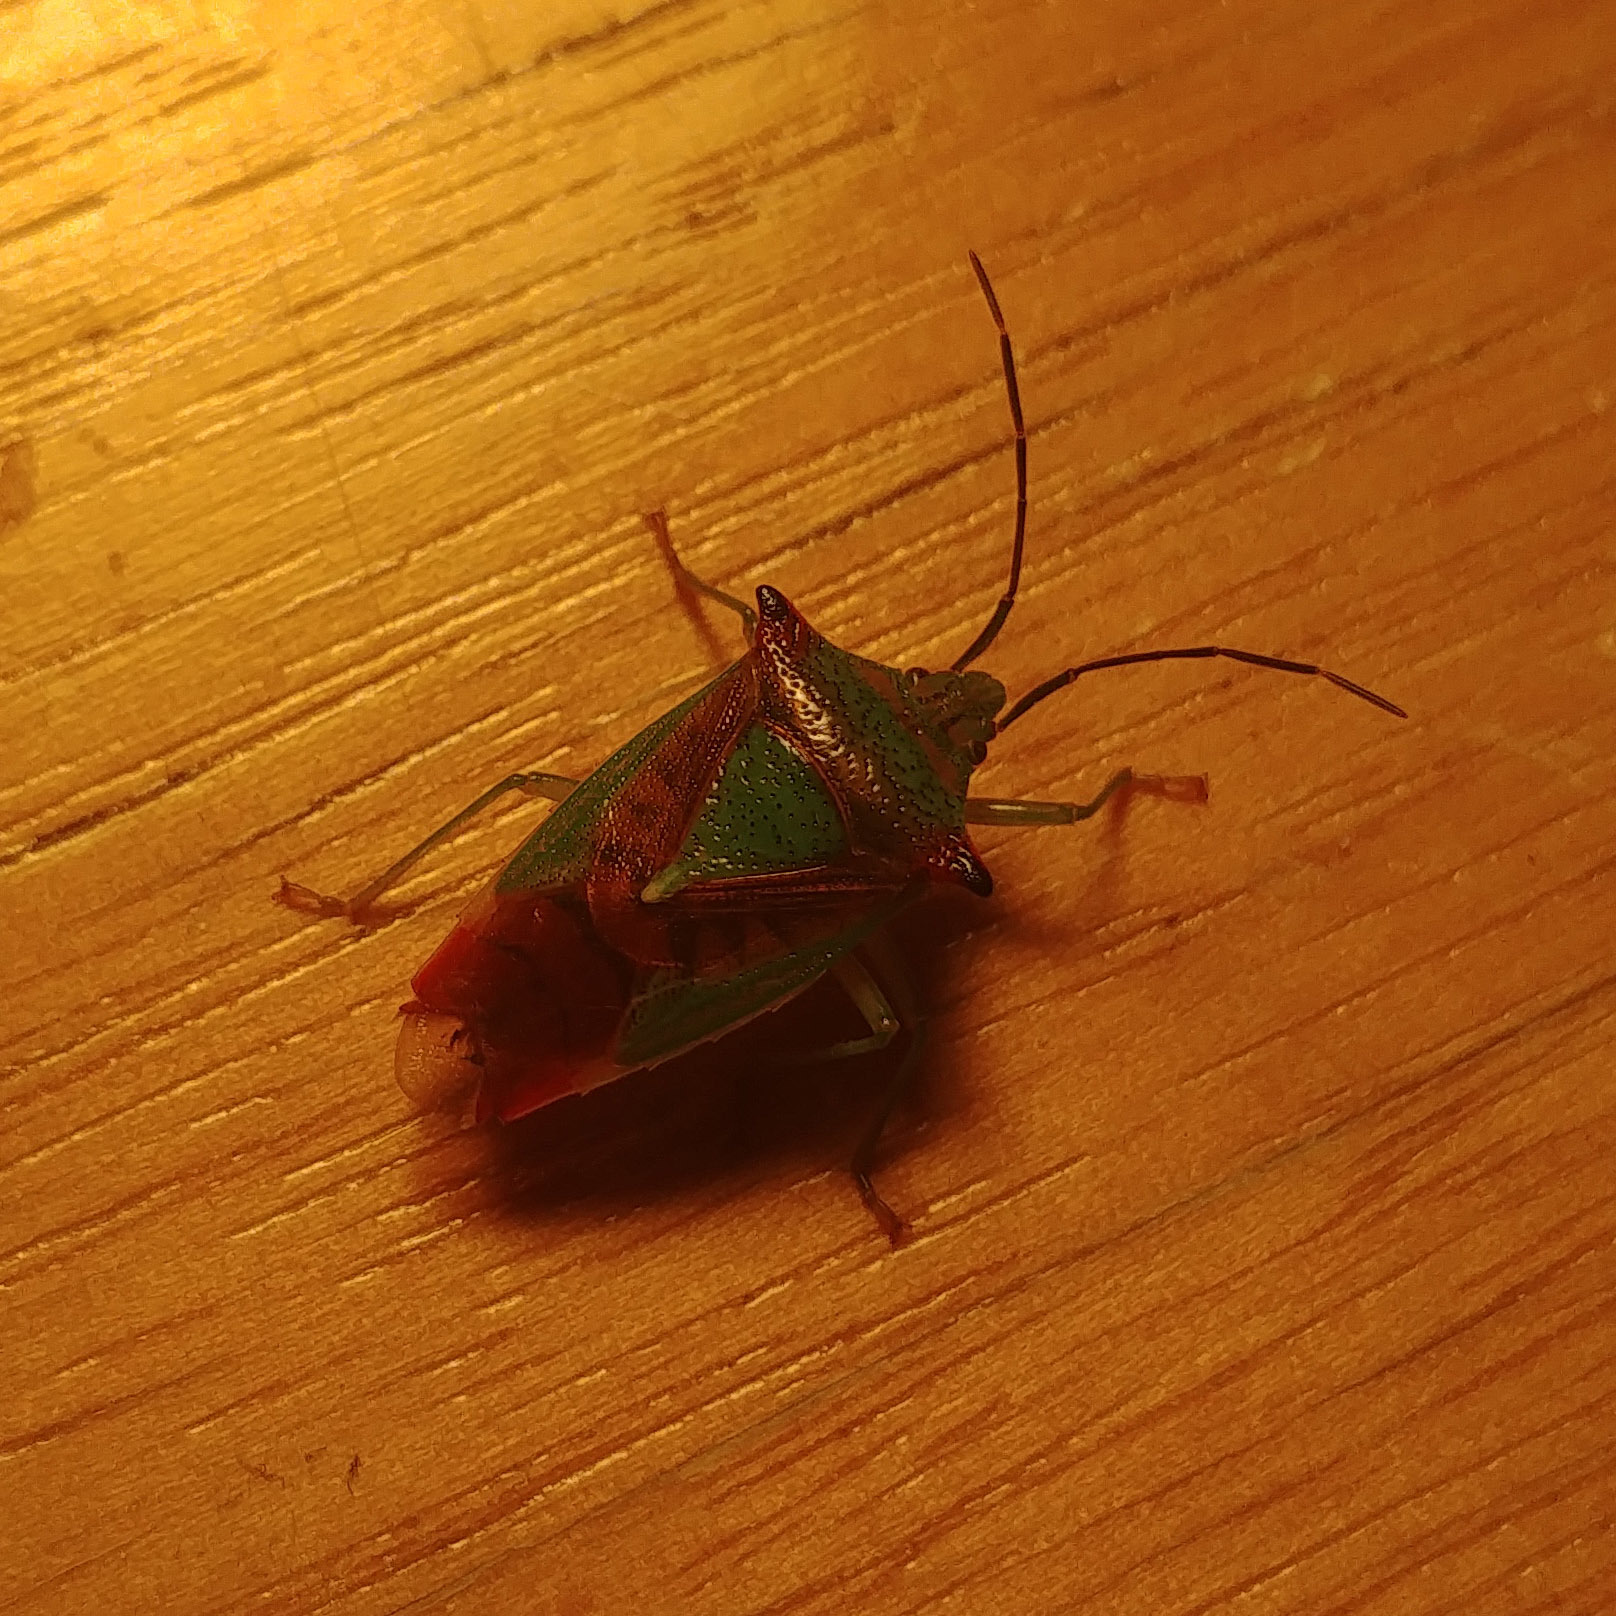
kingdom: Animalia
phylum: Arthropoda
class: Insecta
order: Hemiptera
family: Acanthosomatidae
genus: Acanthosoma
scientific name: Acanthosoma haemorrhoidale
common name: Hawthorn shieldbug
